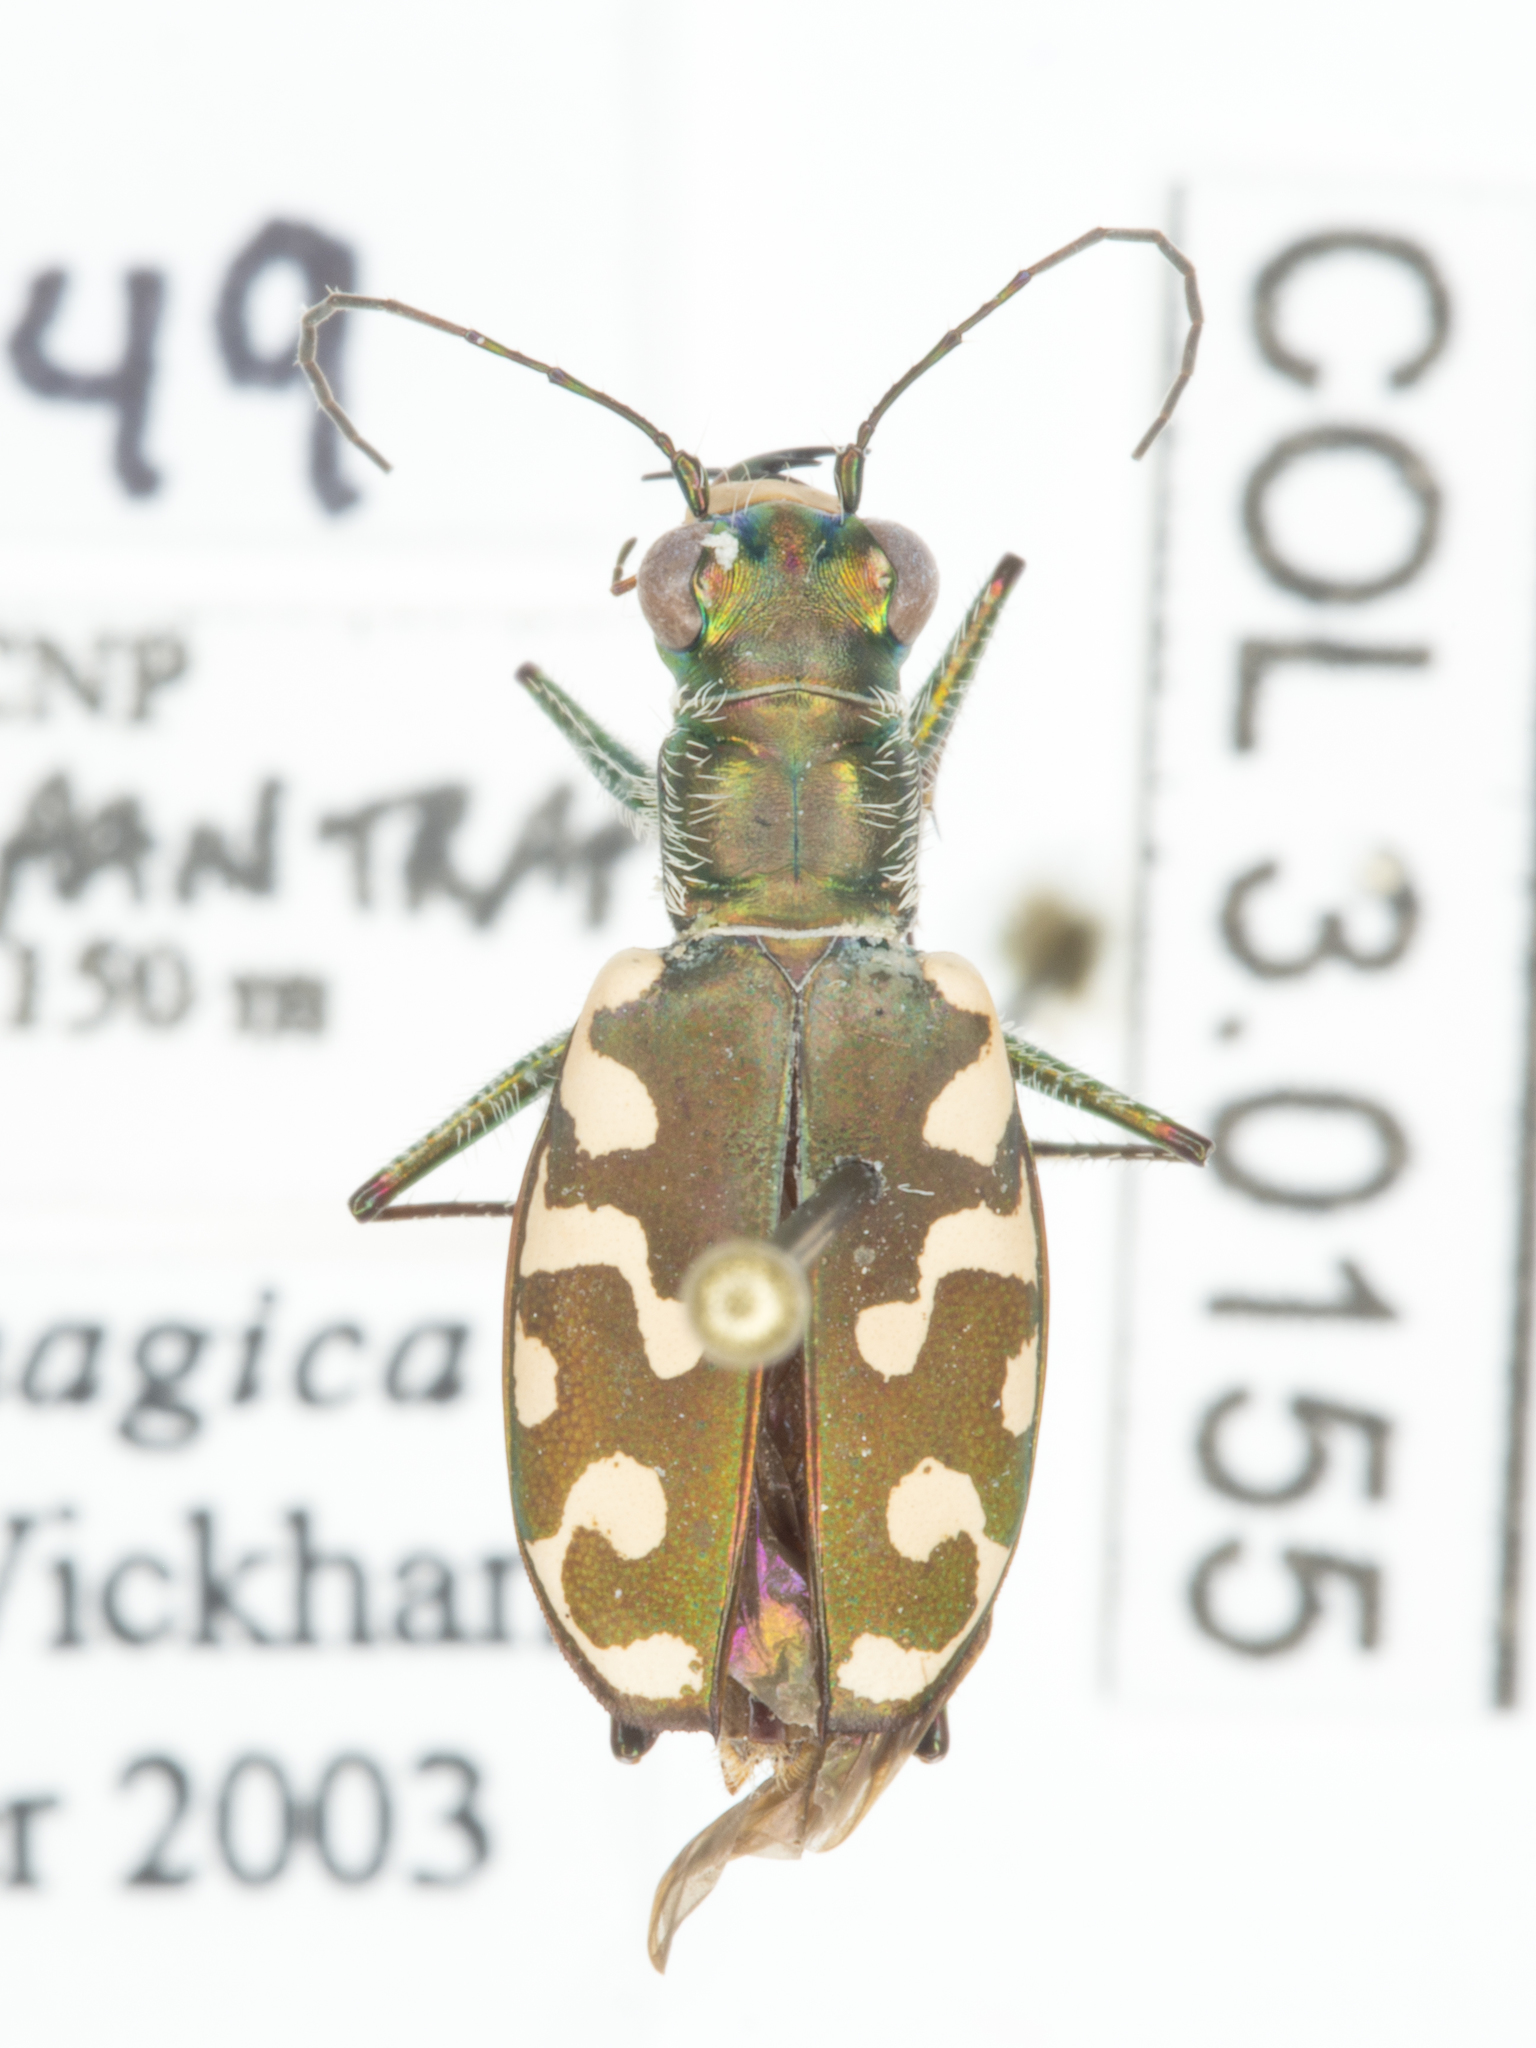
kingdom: Animalia
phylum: Arthropoda
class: Insecta
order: Coleoptera
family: Carabidae
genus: Cicindela
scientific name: Cicindela hemorrhagica
